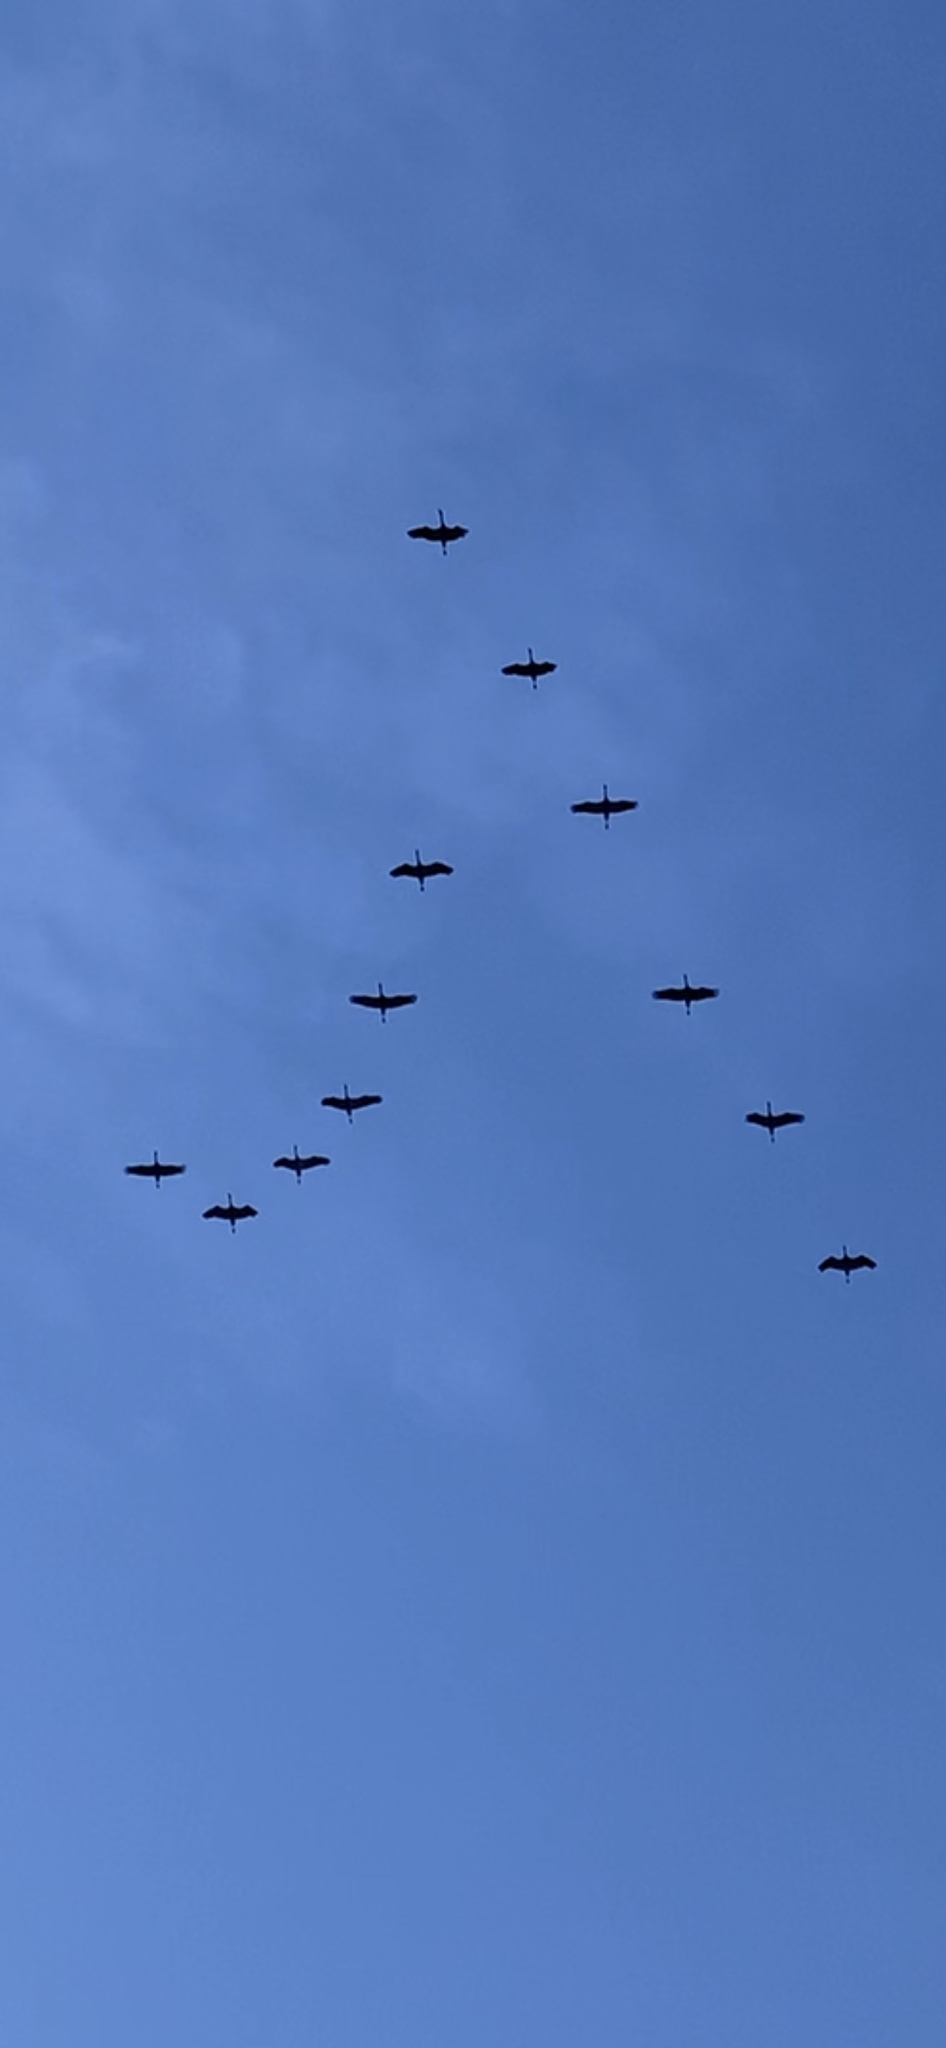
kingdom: Animalia
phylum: Chordata
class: Aves
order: Gruiformes
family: Gruidae
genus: Grus
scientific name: Grus grus
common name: Common crane
